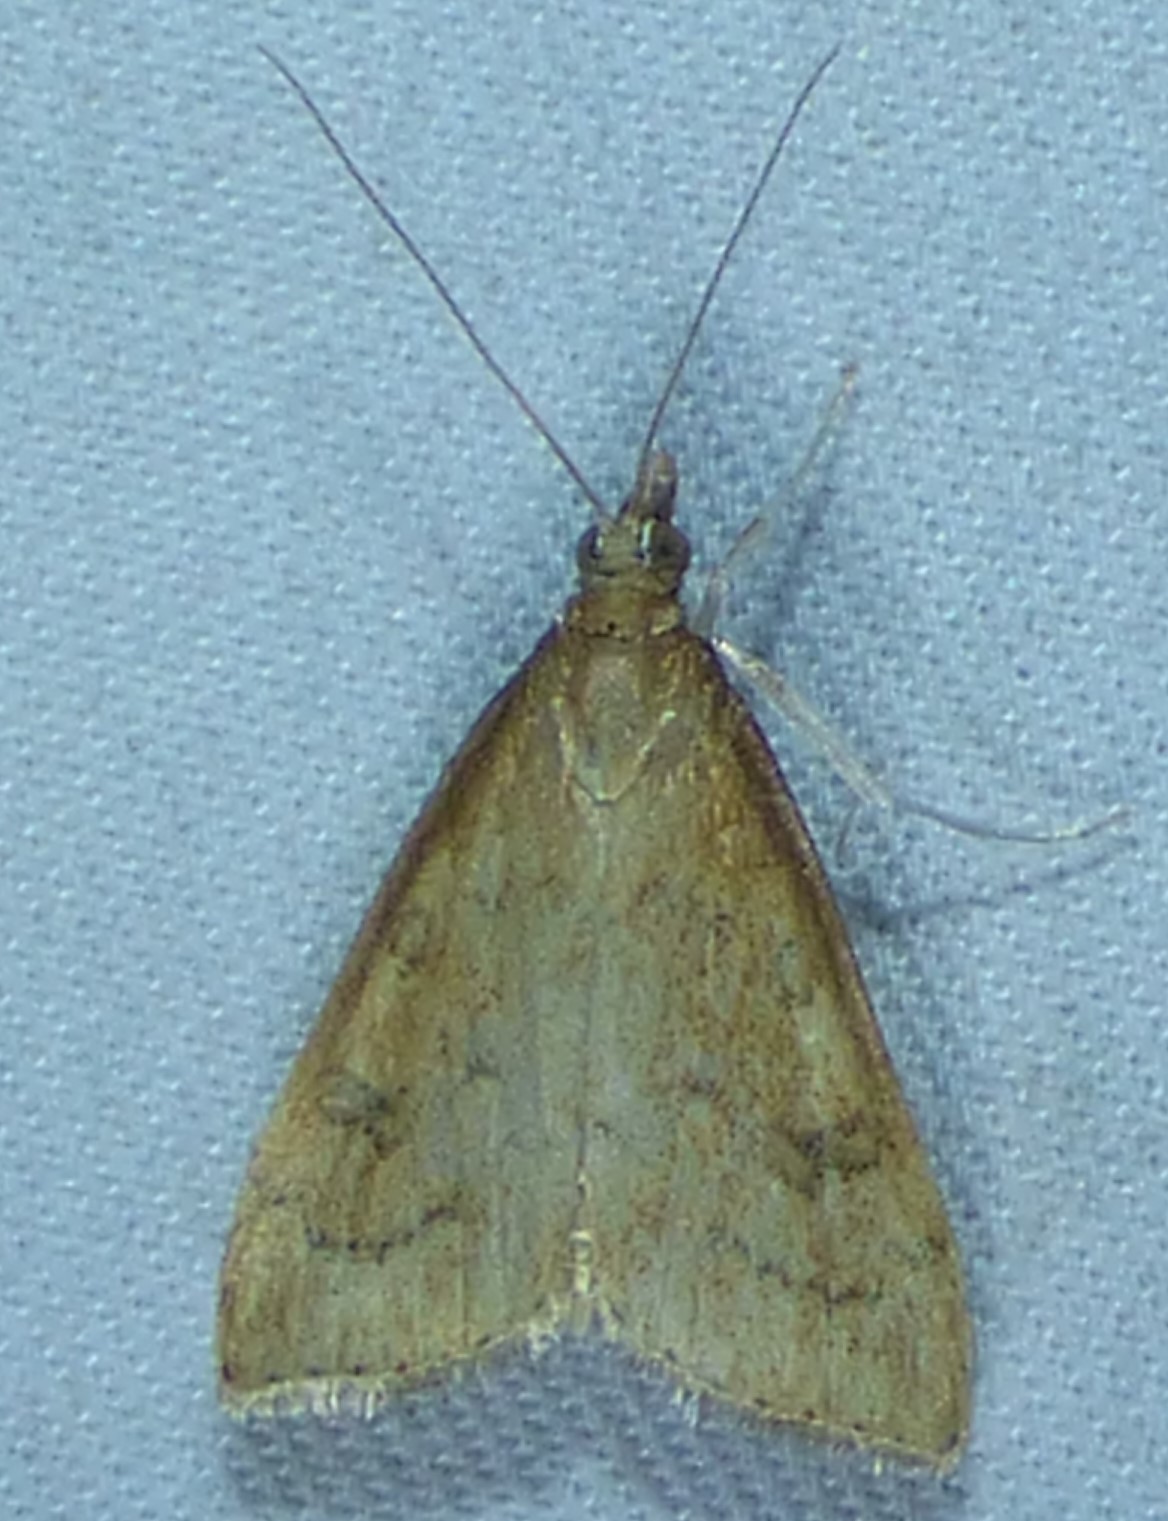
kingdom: Animalia
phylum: Arthropoda
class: Insecta
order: Lepidoptera
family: Crambidae
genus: Udea
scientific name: Udea rubigalis
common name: Celery leaftier moth
